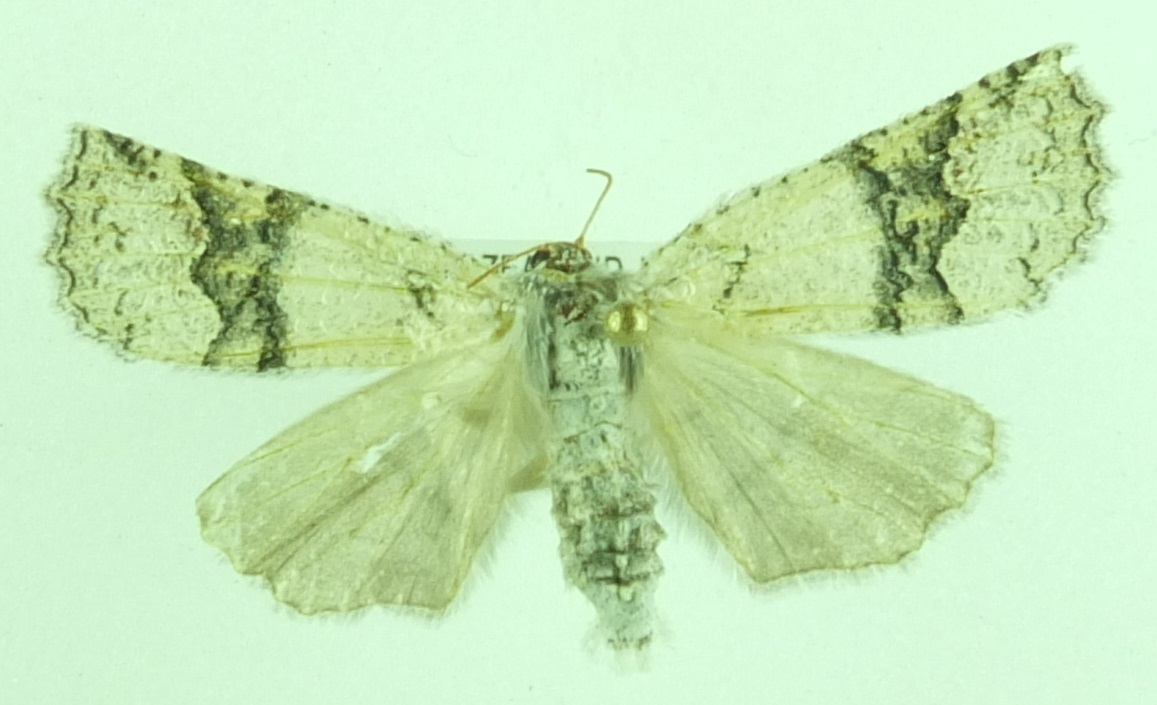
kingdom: Animalia
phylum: Arthropoda
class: Insecta
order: Lepidoptera
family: Geometridae
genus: Declana
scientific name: Declana floccosa
